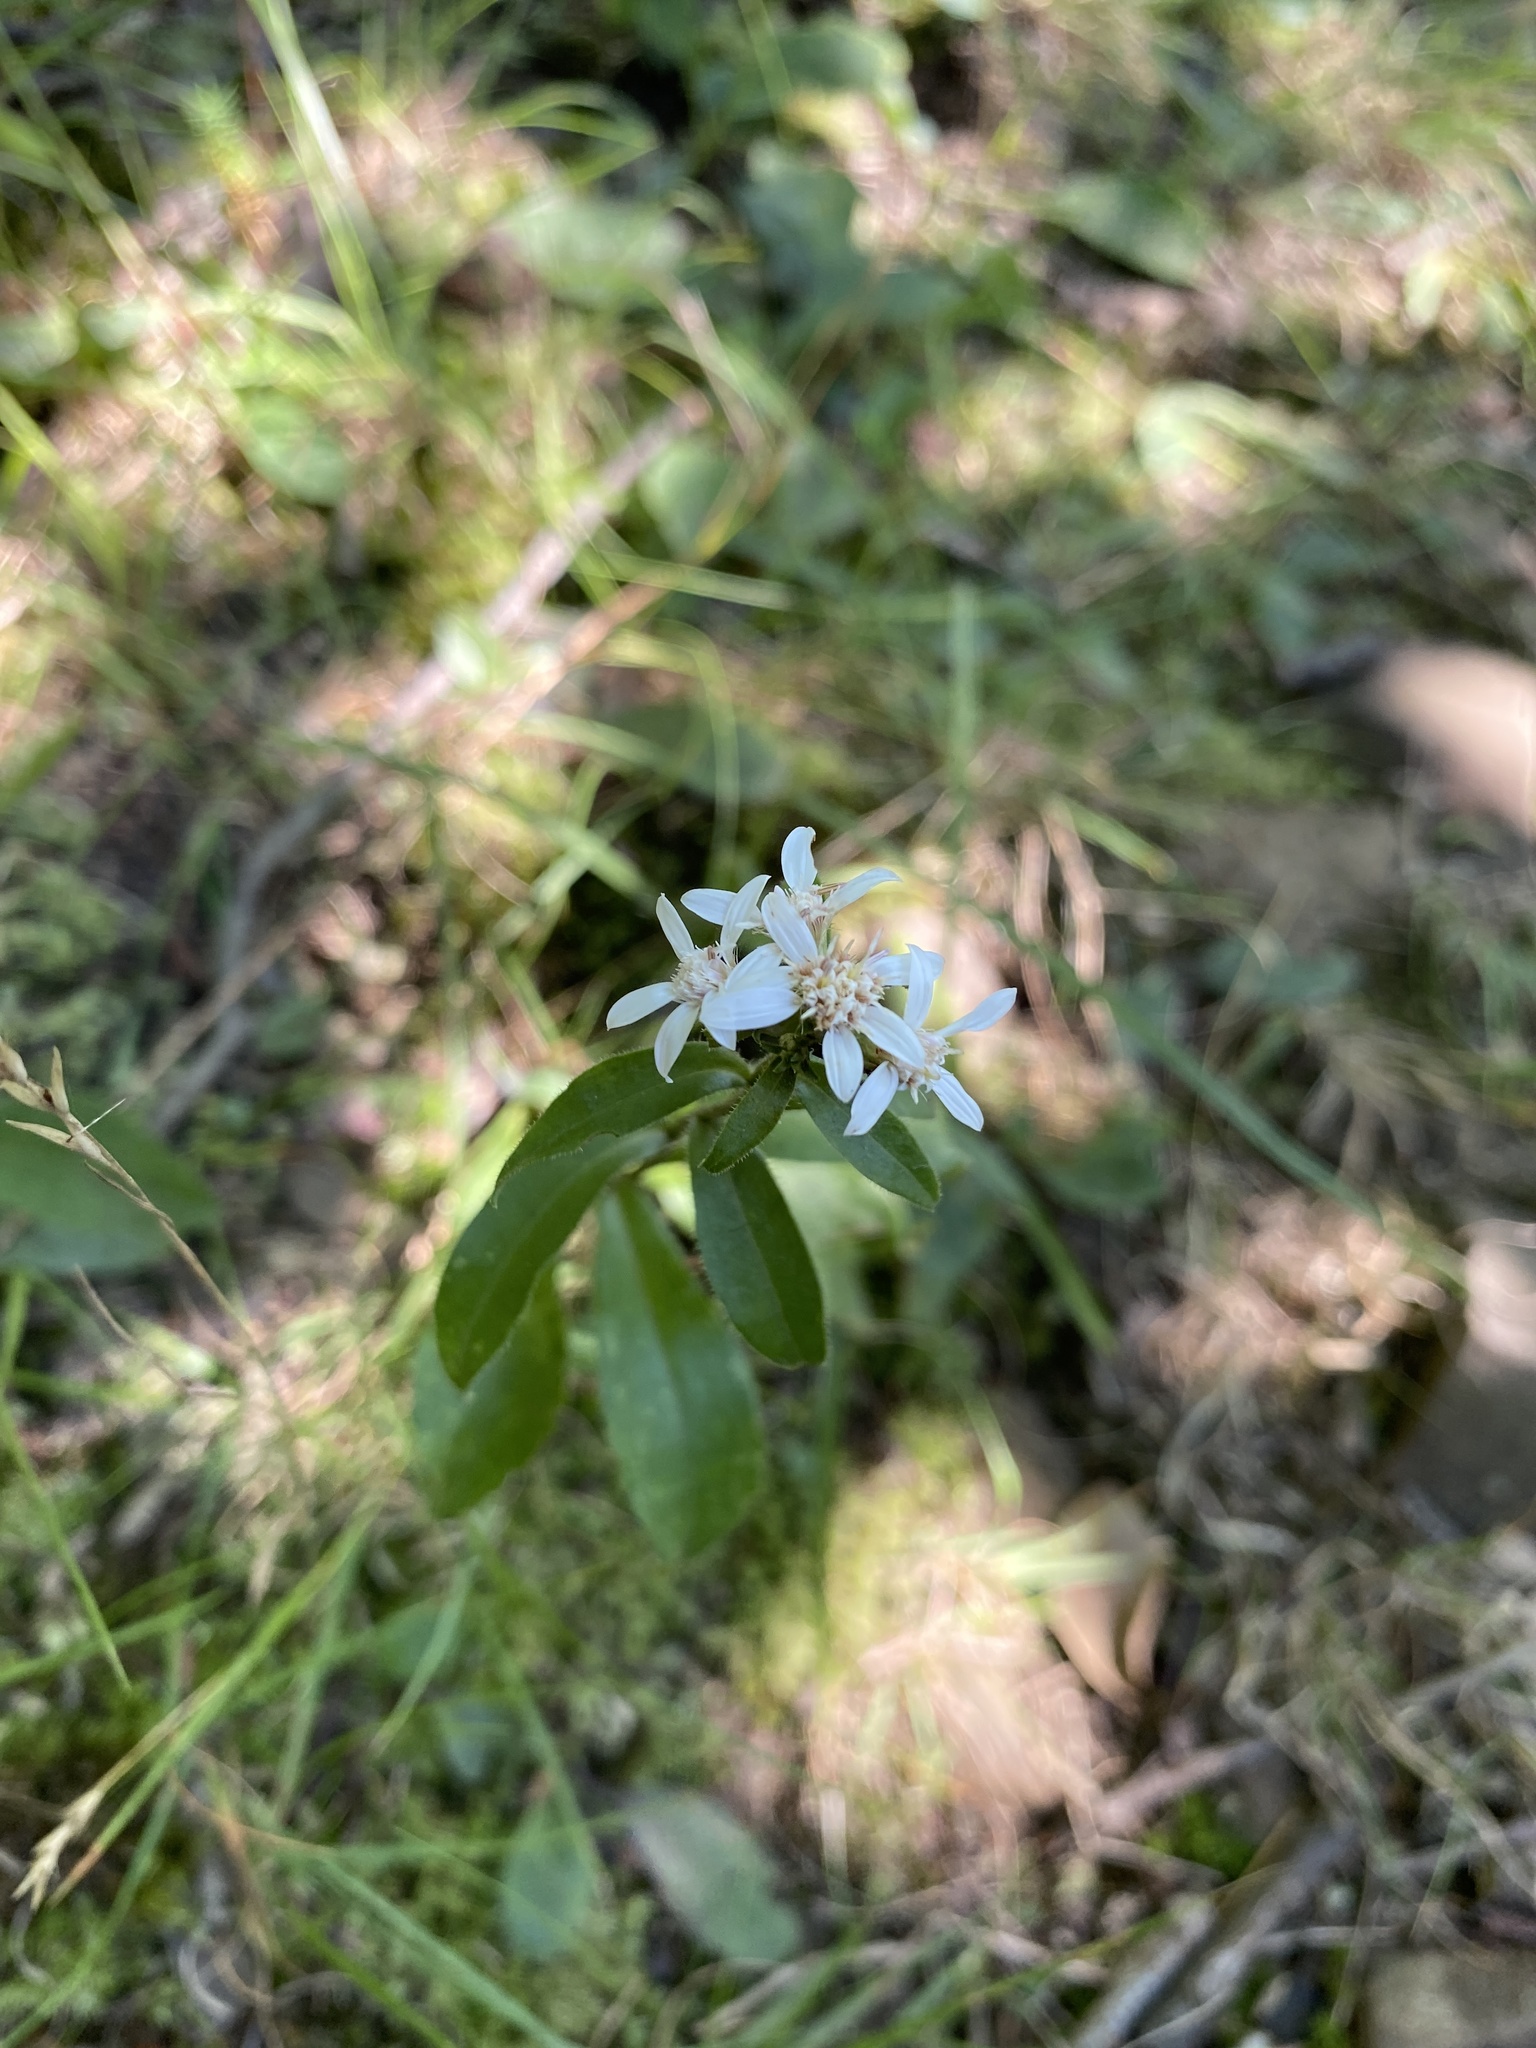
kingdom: Plantae
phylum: Tracheophyta
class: Magnoliopsida
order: Asterales
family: Asteraceae
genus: Sericocarpus
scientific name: Sericocarpus asteroides
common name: Toothed white-top aster
